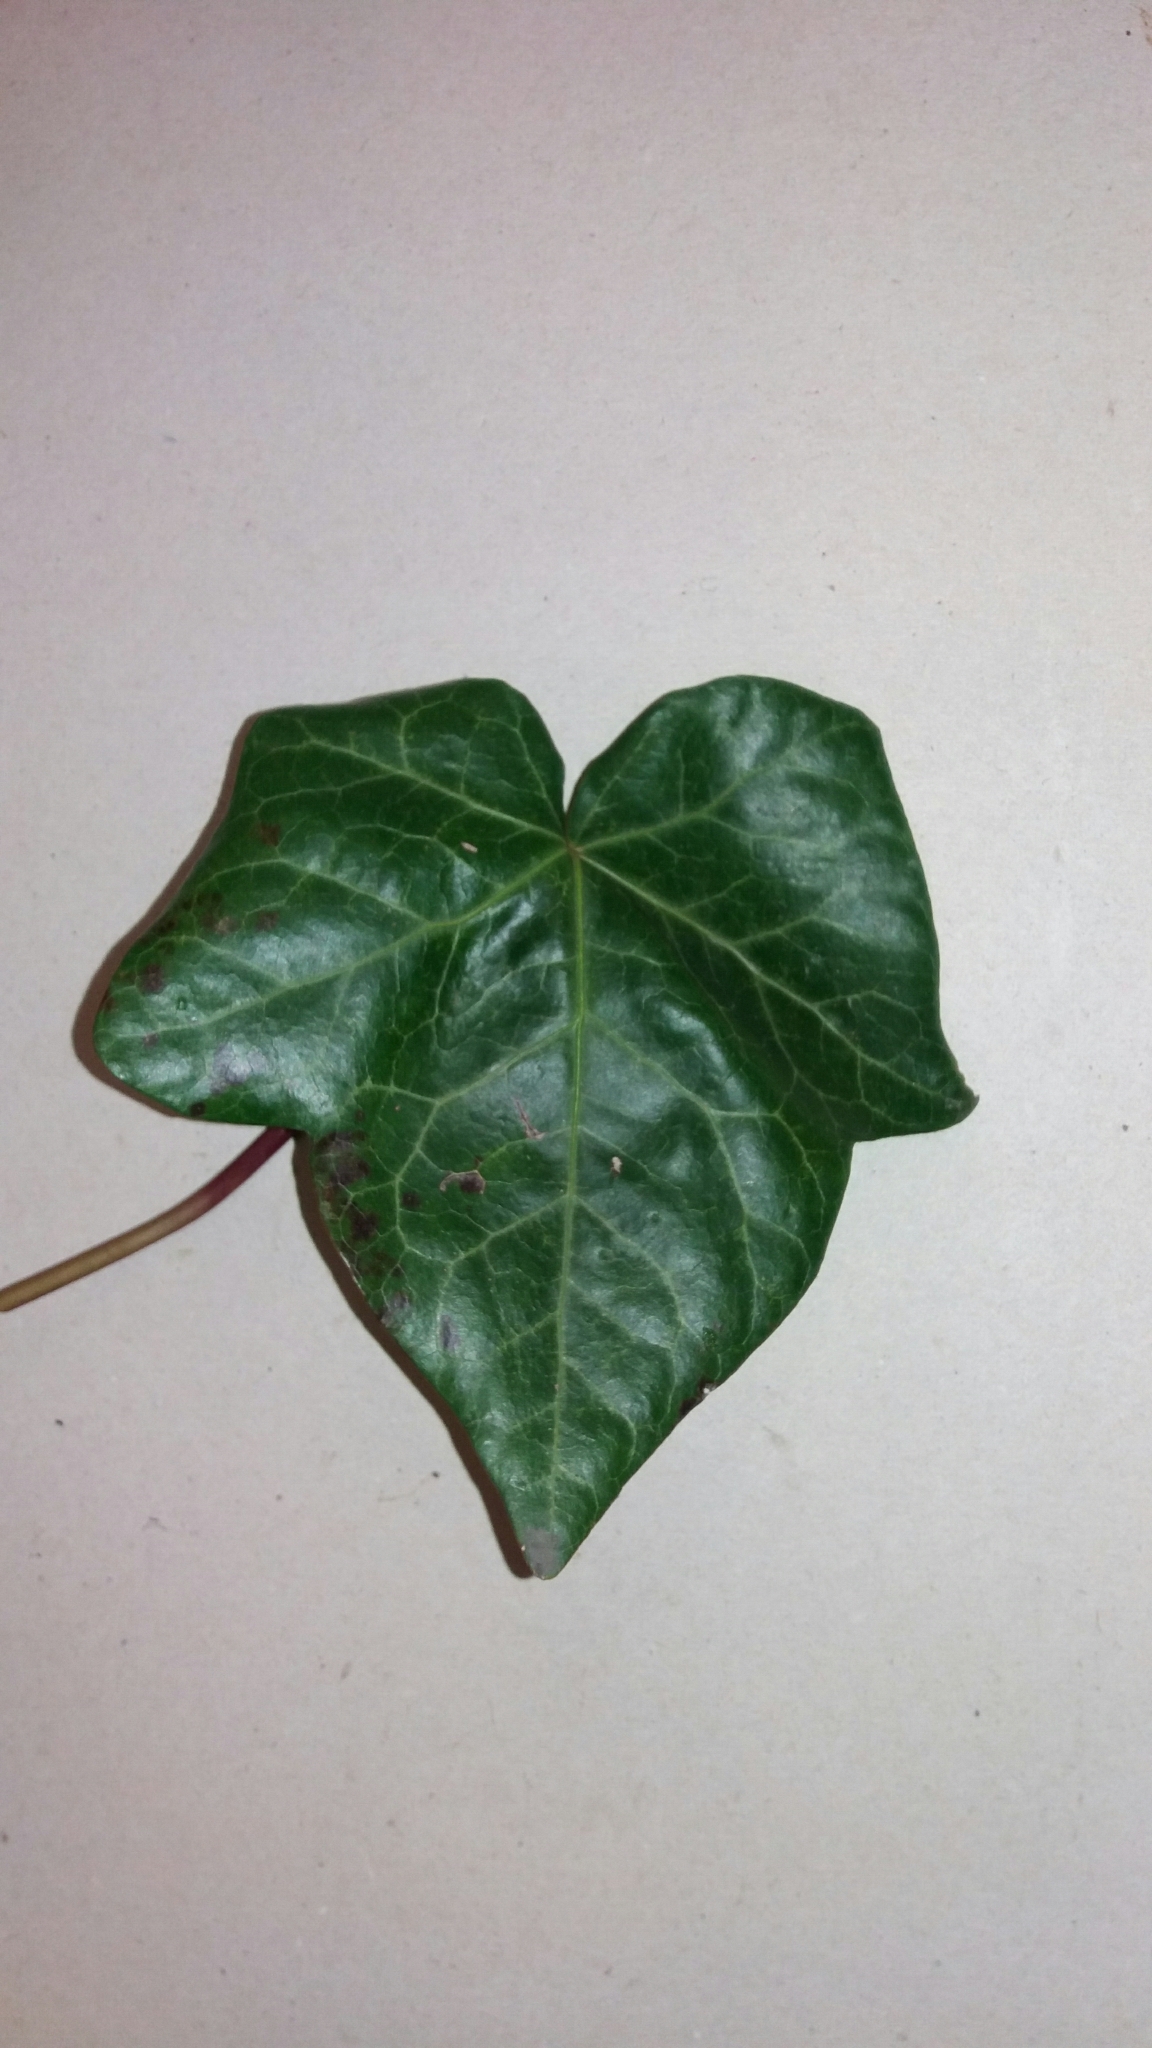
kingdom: Plantae
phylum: Tracheophyta
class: Magnoliopsida
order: Apiales
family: Araliaceae
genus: Hedera
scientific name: Hedera helix
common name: Ivy
